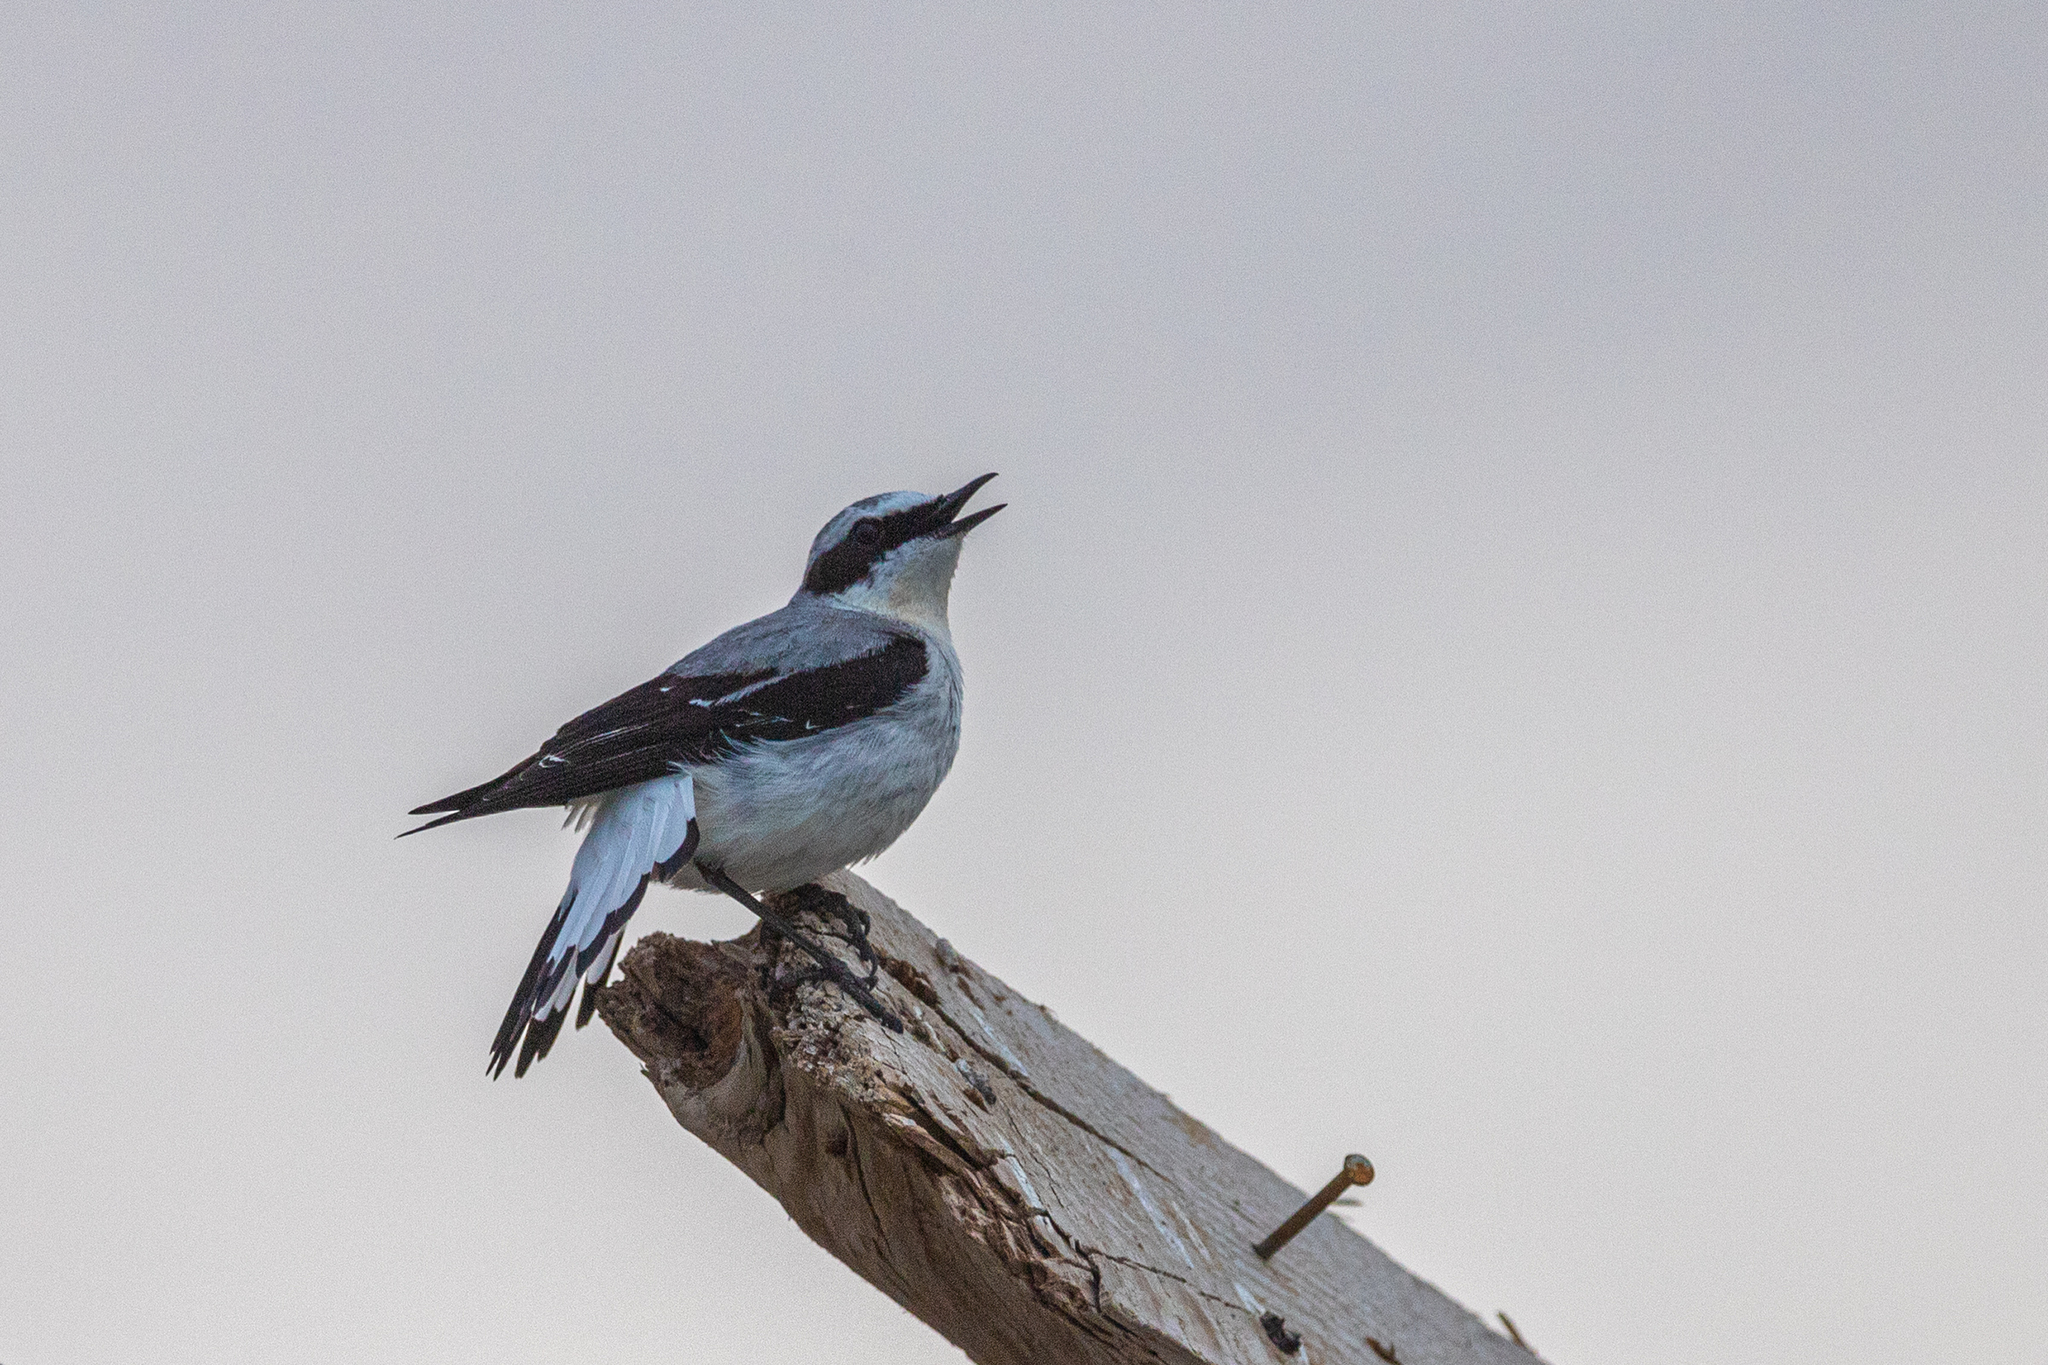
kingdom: Animalia
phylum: Chordata
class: Aves
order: Passeriformes
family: Muscicapidae
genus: Oenanthe
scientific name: Oenanthe oenanthe
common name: Northern wheatear
